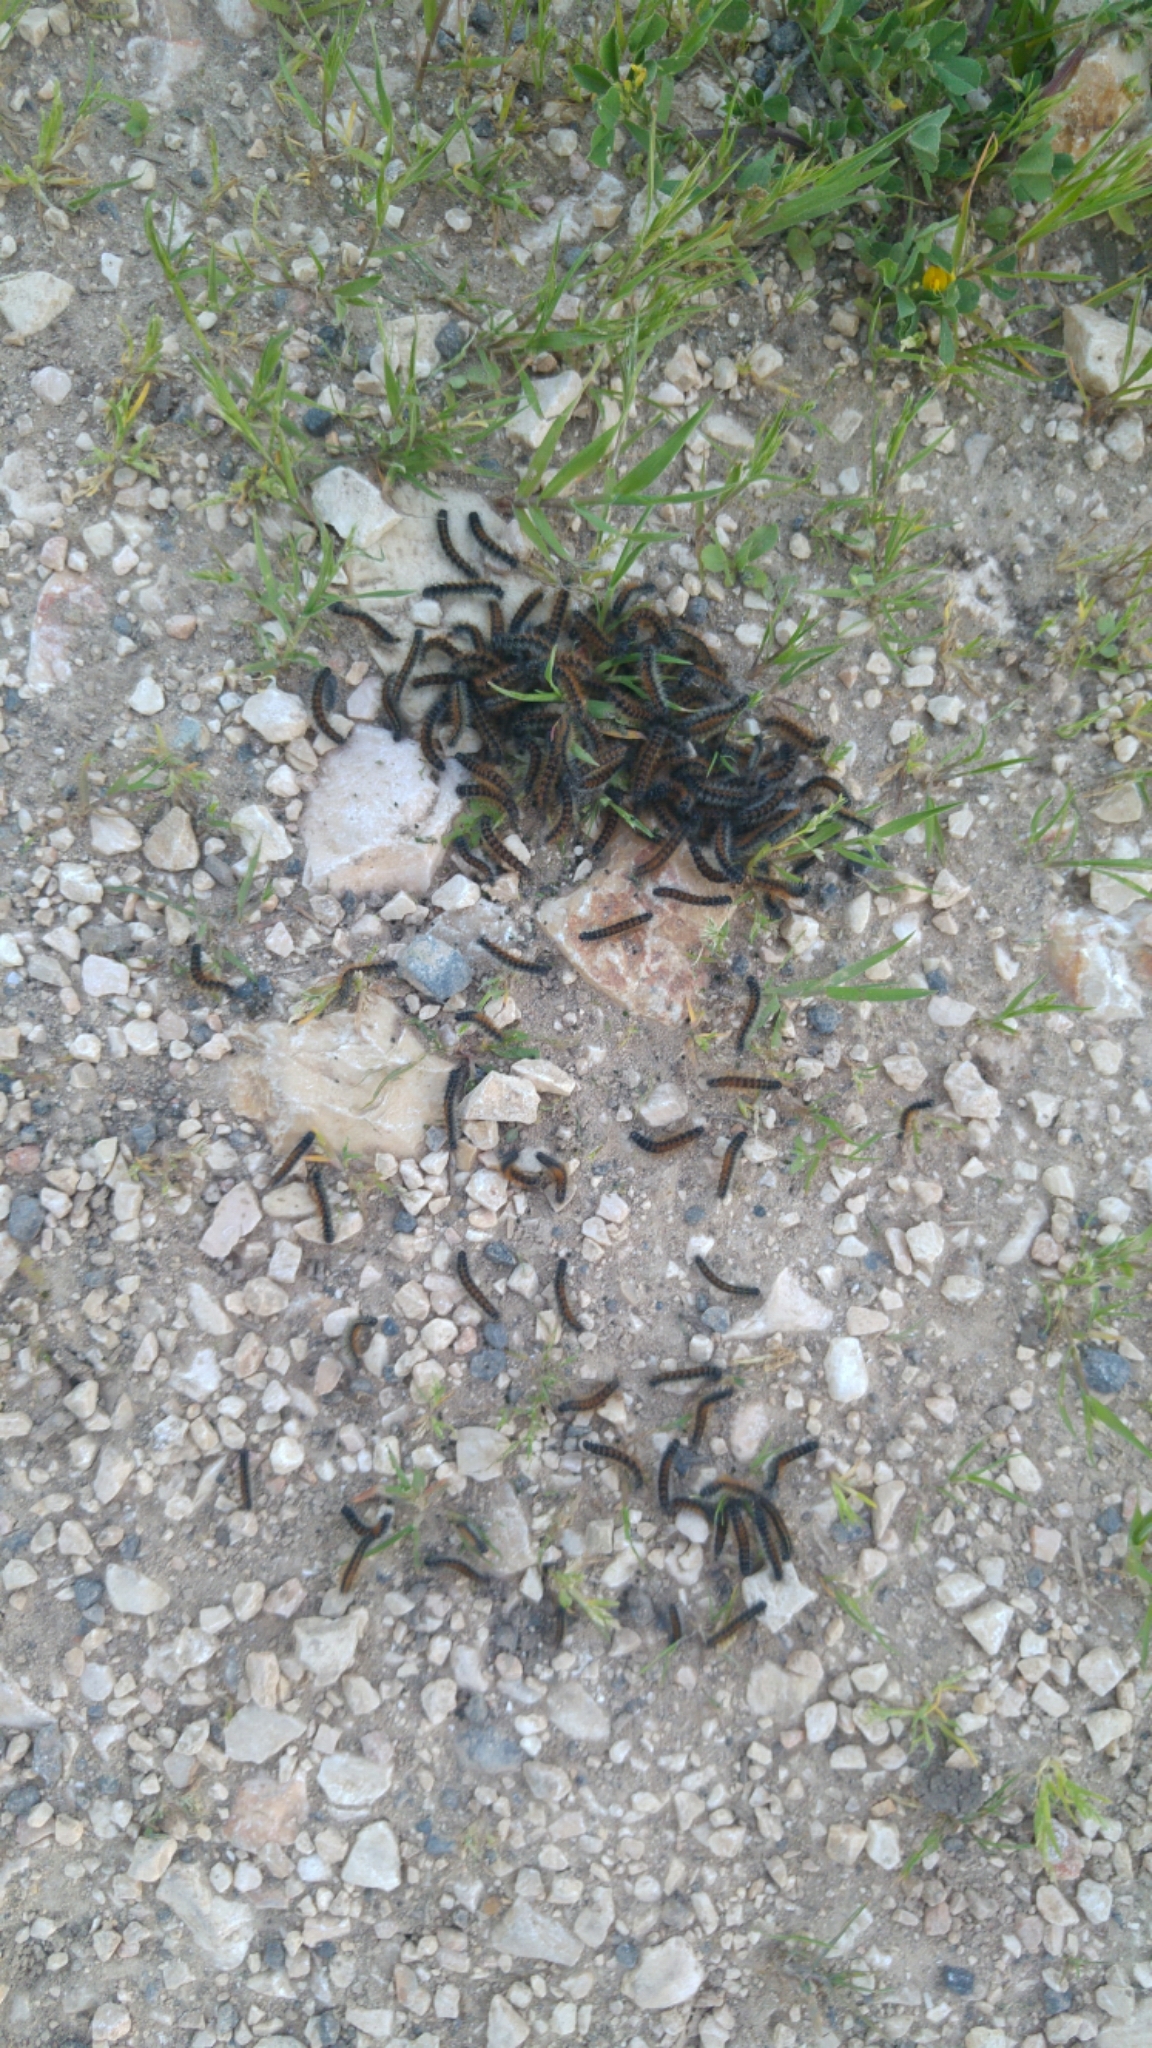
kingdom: Animalia
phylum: Arthropoda
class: Insecta
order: Lepidoptera
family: Erebidae
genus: Ocnogyna
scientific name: Ocnogyna loewii
